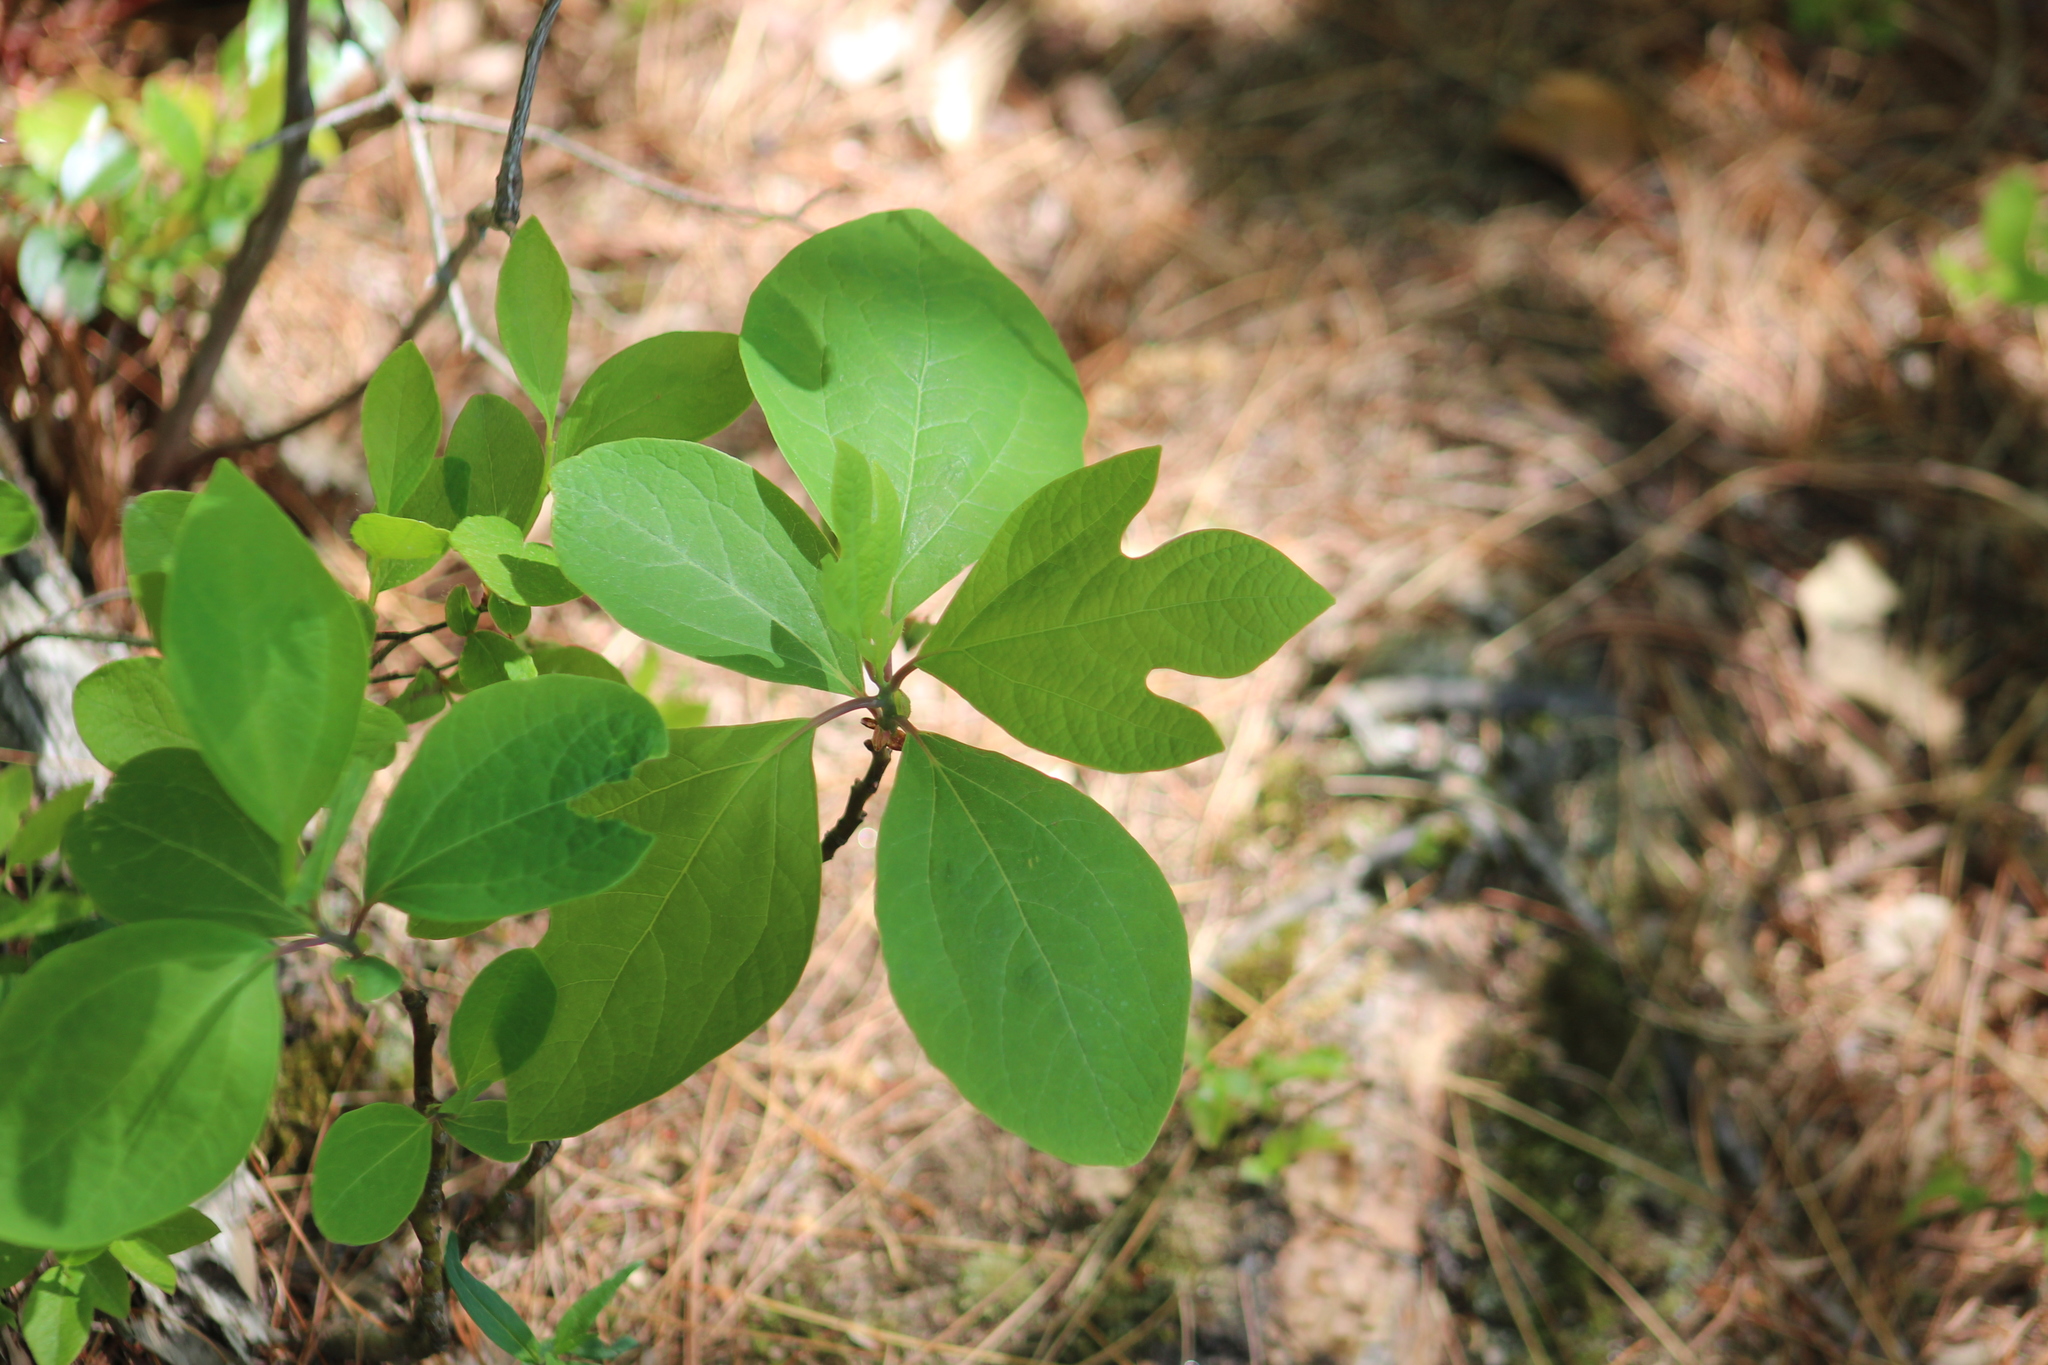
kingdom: Plantae
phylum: Tracheophyta
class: Magnoliopsida
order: Laurales
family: Lauraceae
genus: Sassafras
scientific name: Sassafras albidum
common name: Sassafras
